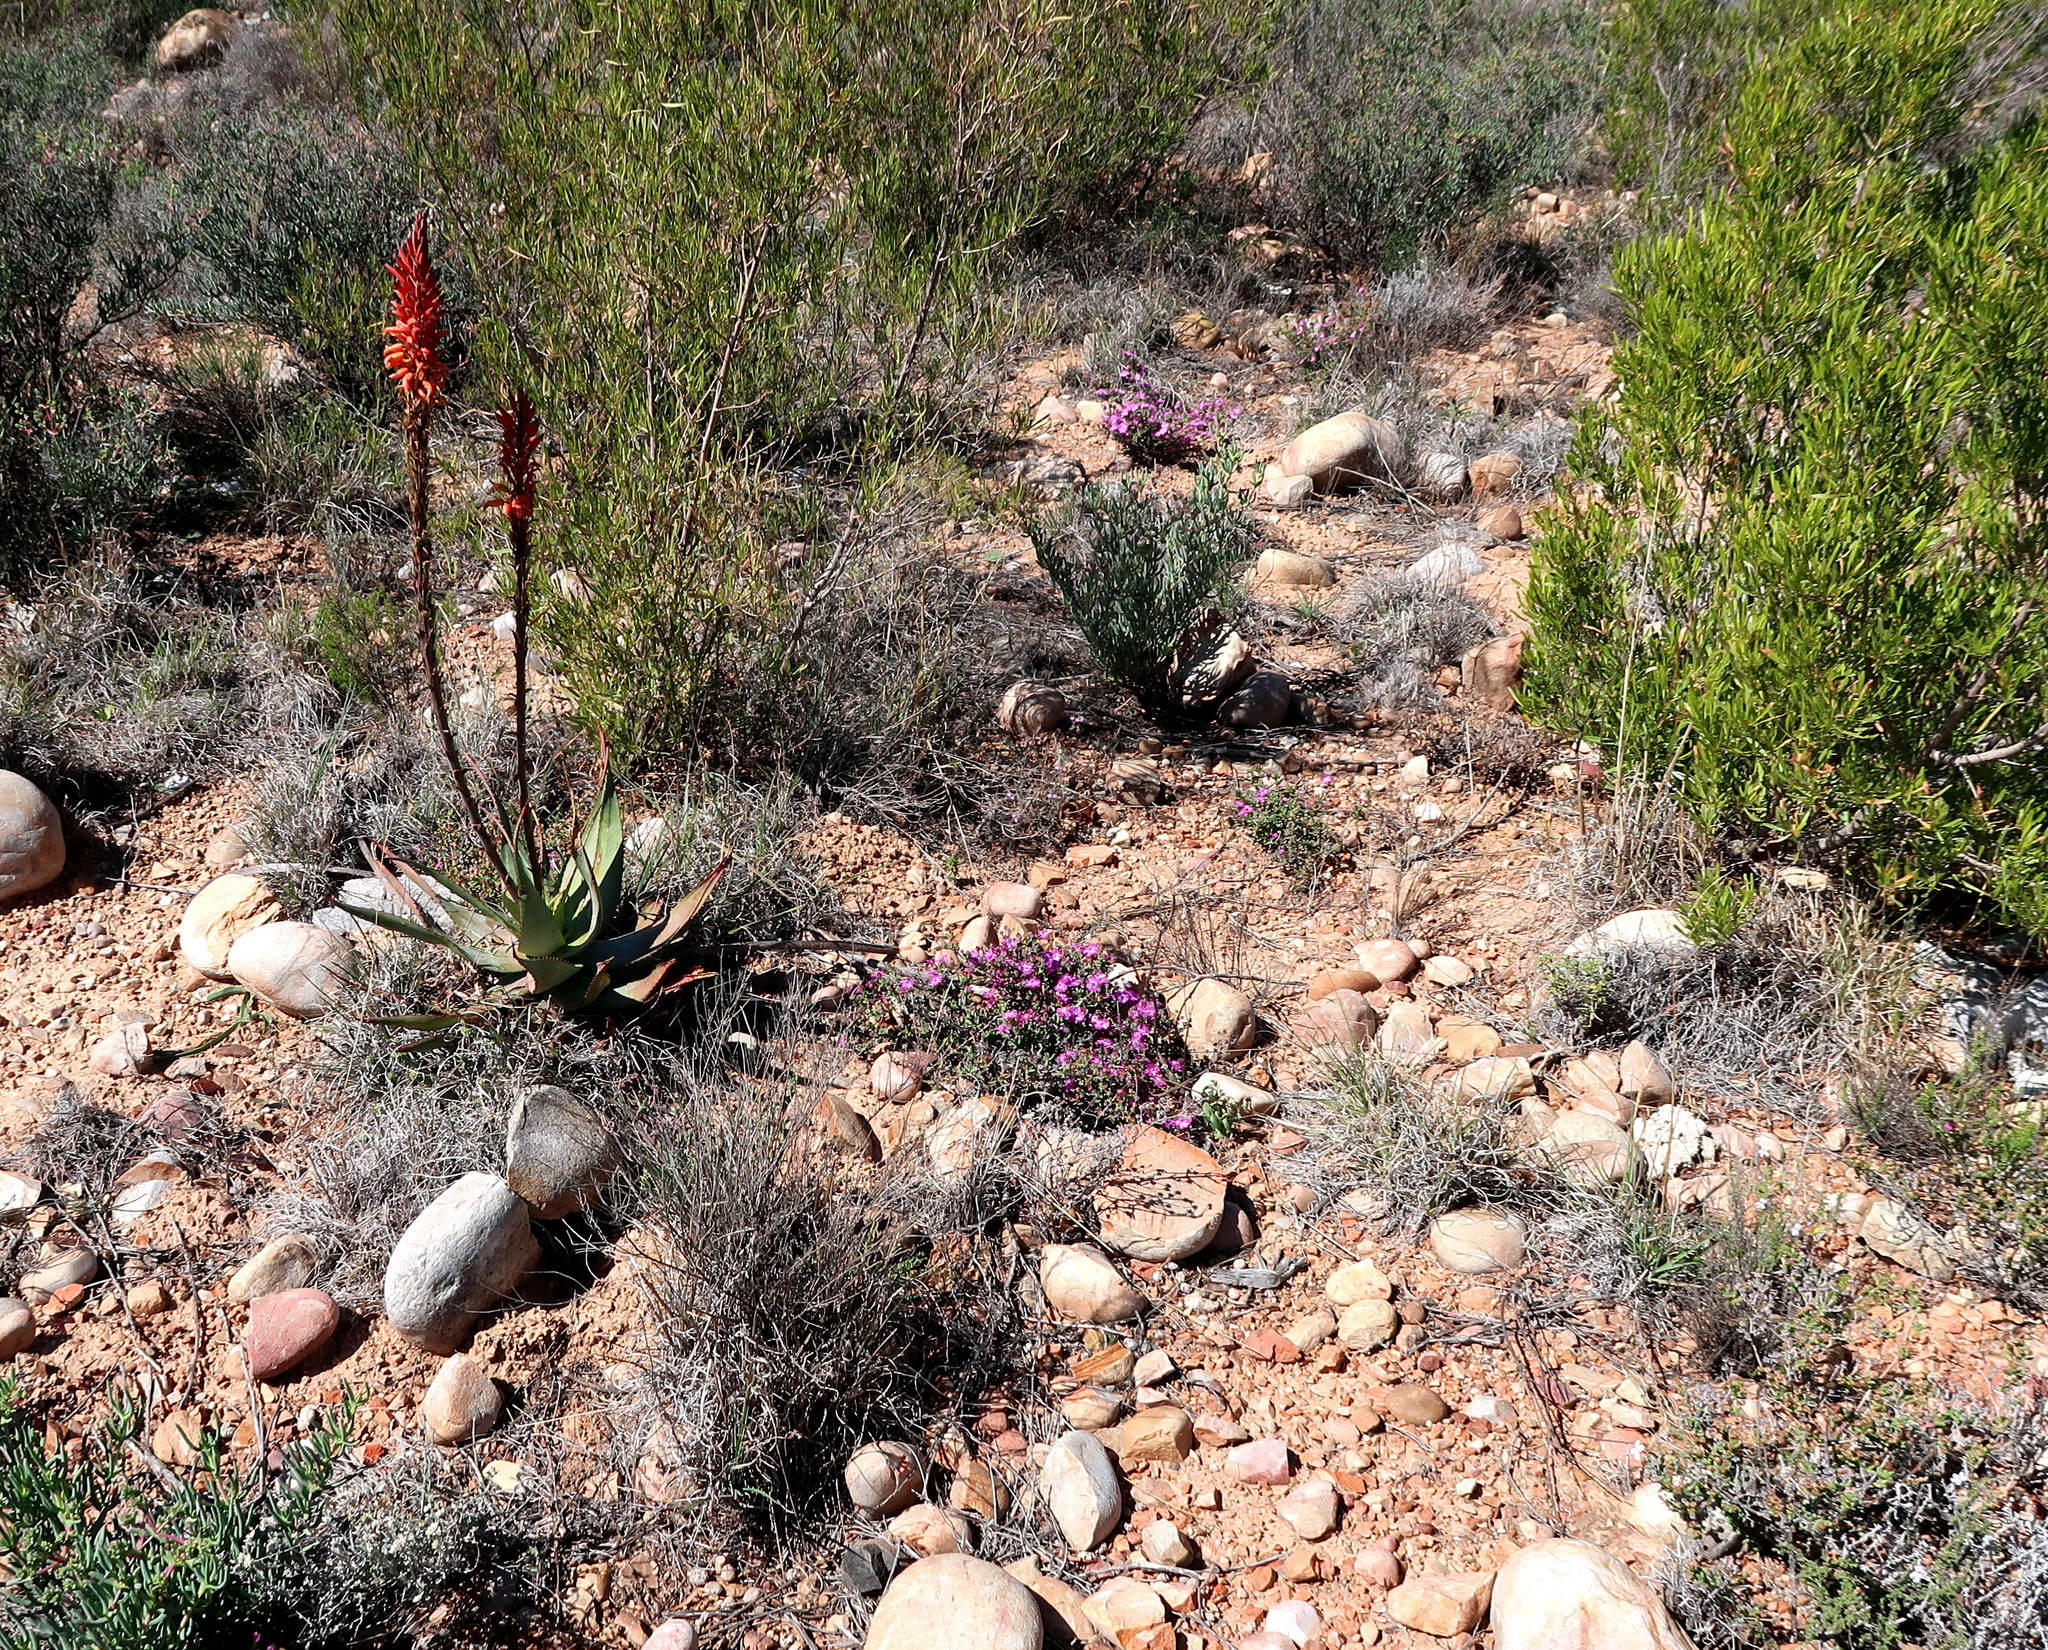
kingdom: Plantae
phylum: Tracheophyta
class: Liliopsida
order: Asparagales
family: Asphodelaceae
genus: Aloe
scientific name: Aloe microstigma
